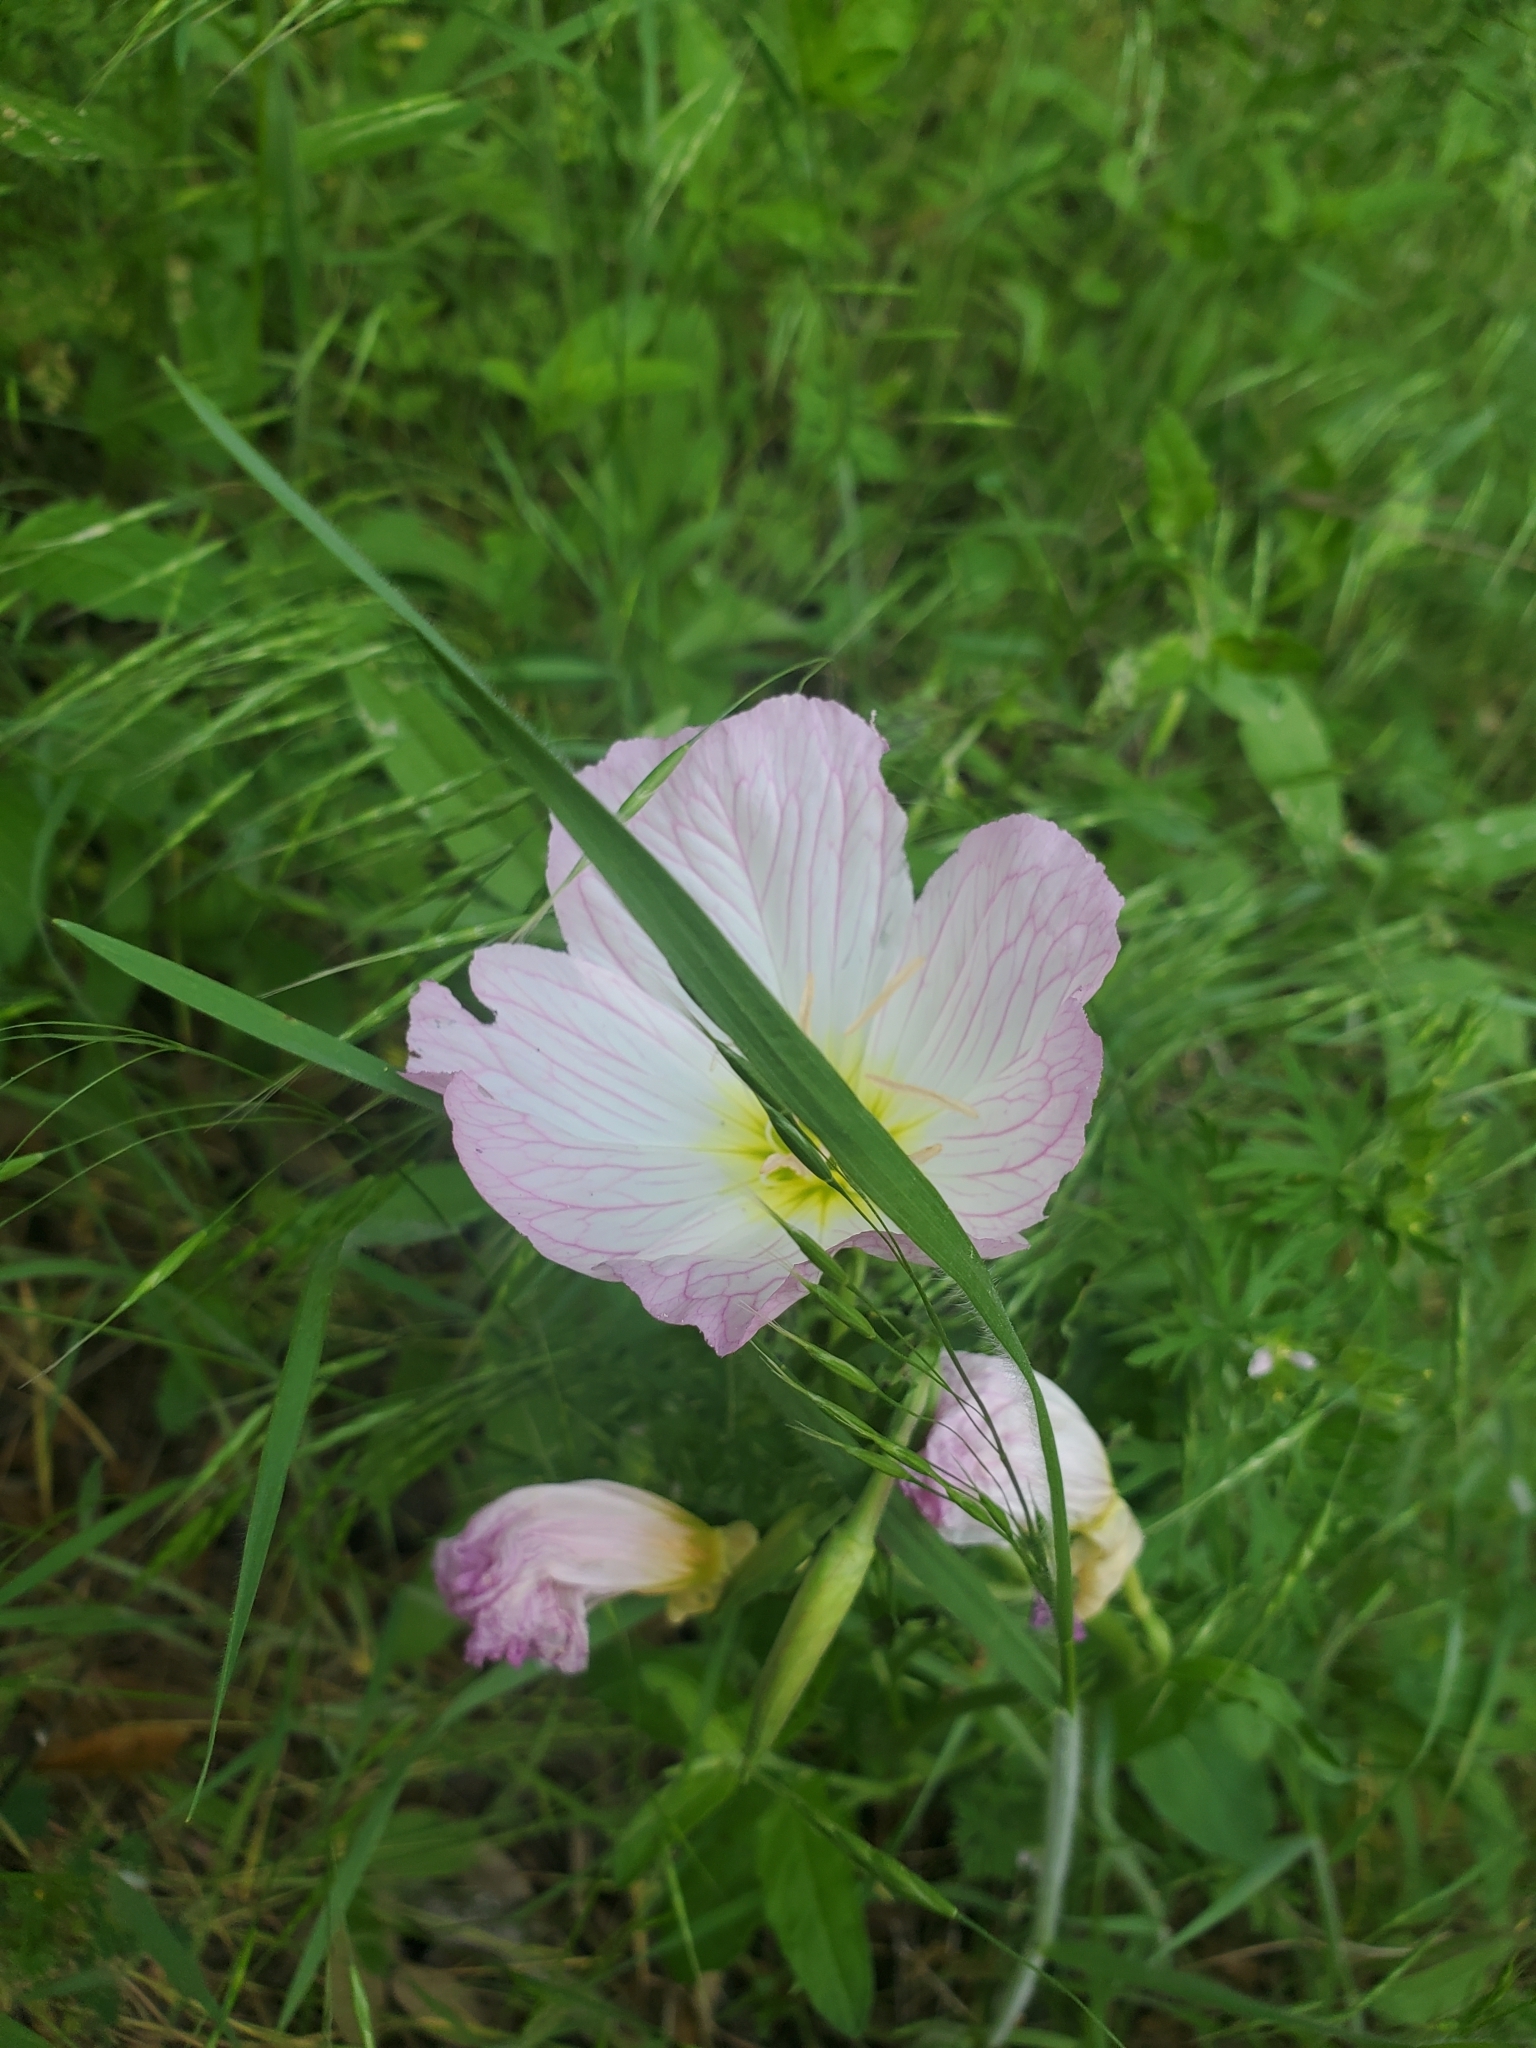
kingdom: Plantae
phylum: Tracheophyta
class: Magnoliopsida
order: Myrtales
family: Onagraceae
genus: Oenothera
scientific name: Oenothera speciosa
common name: White evening-primrose
